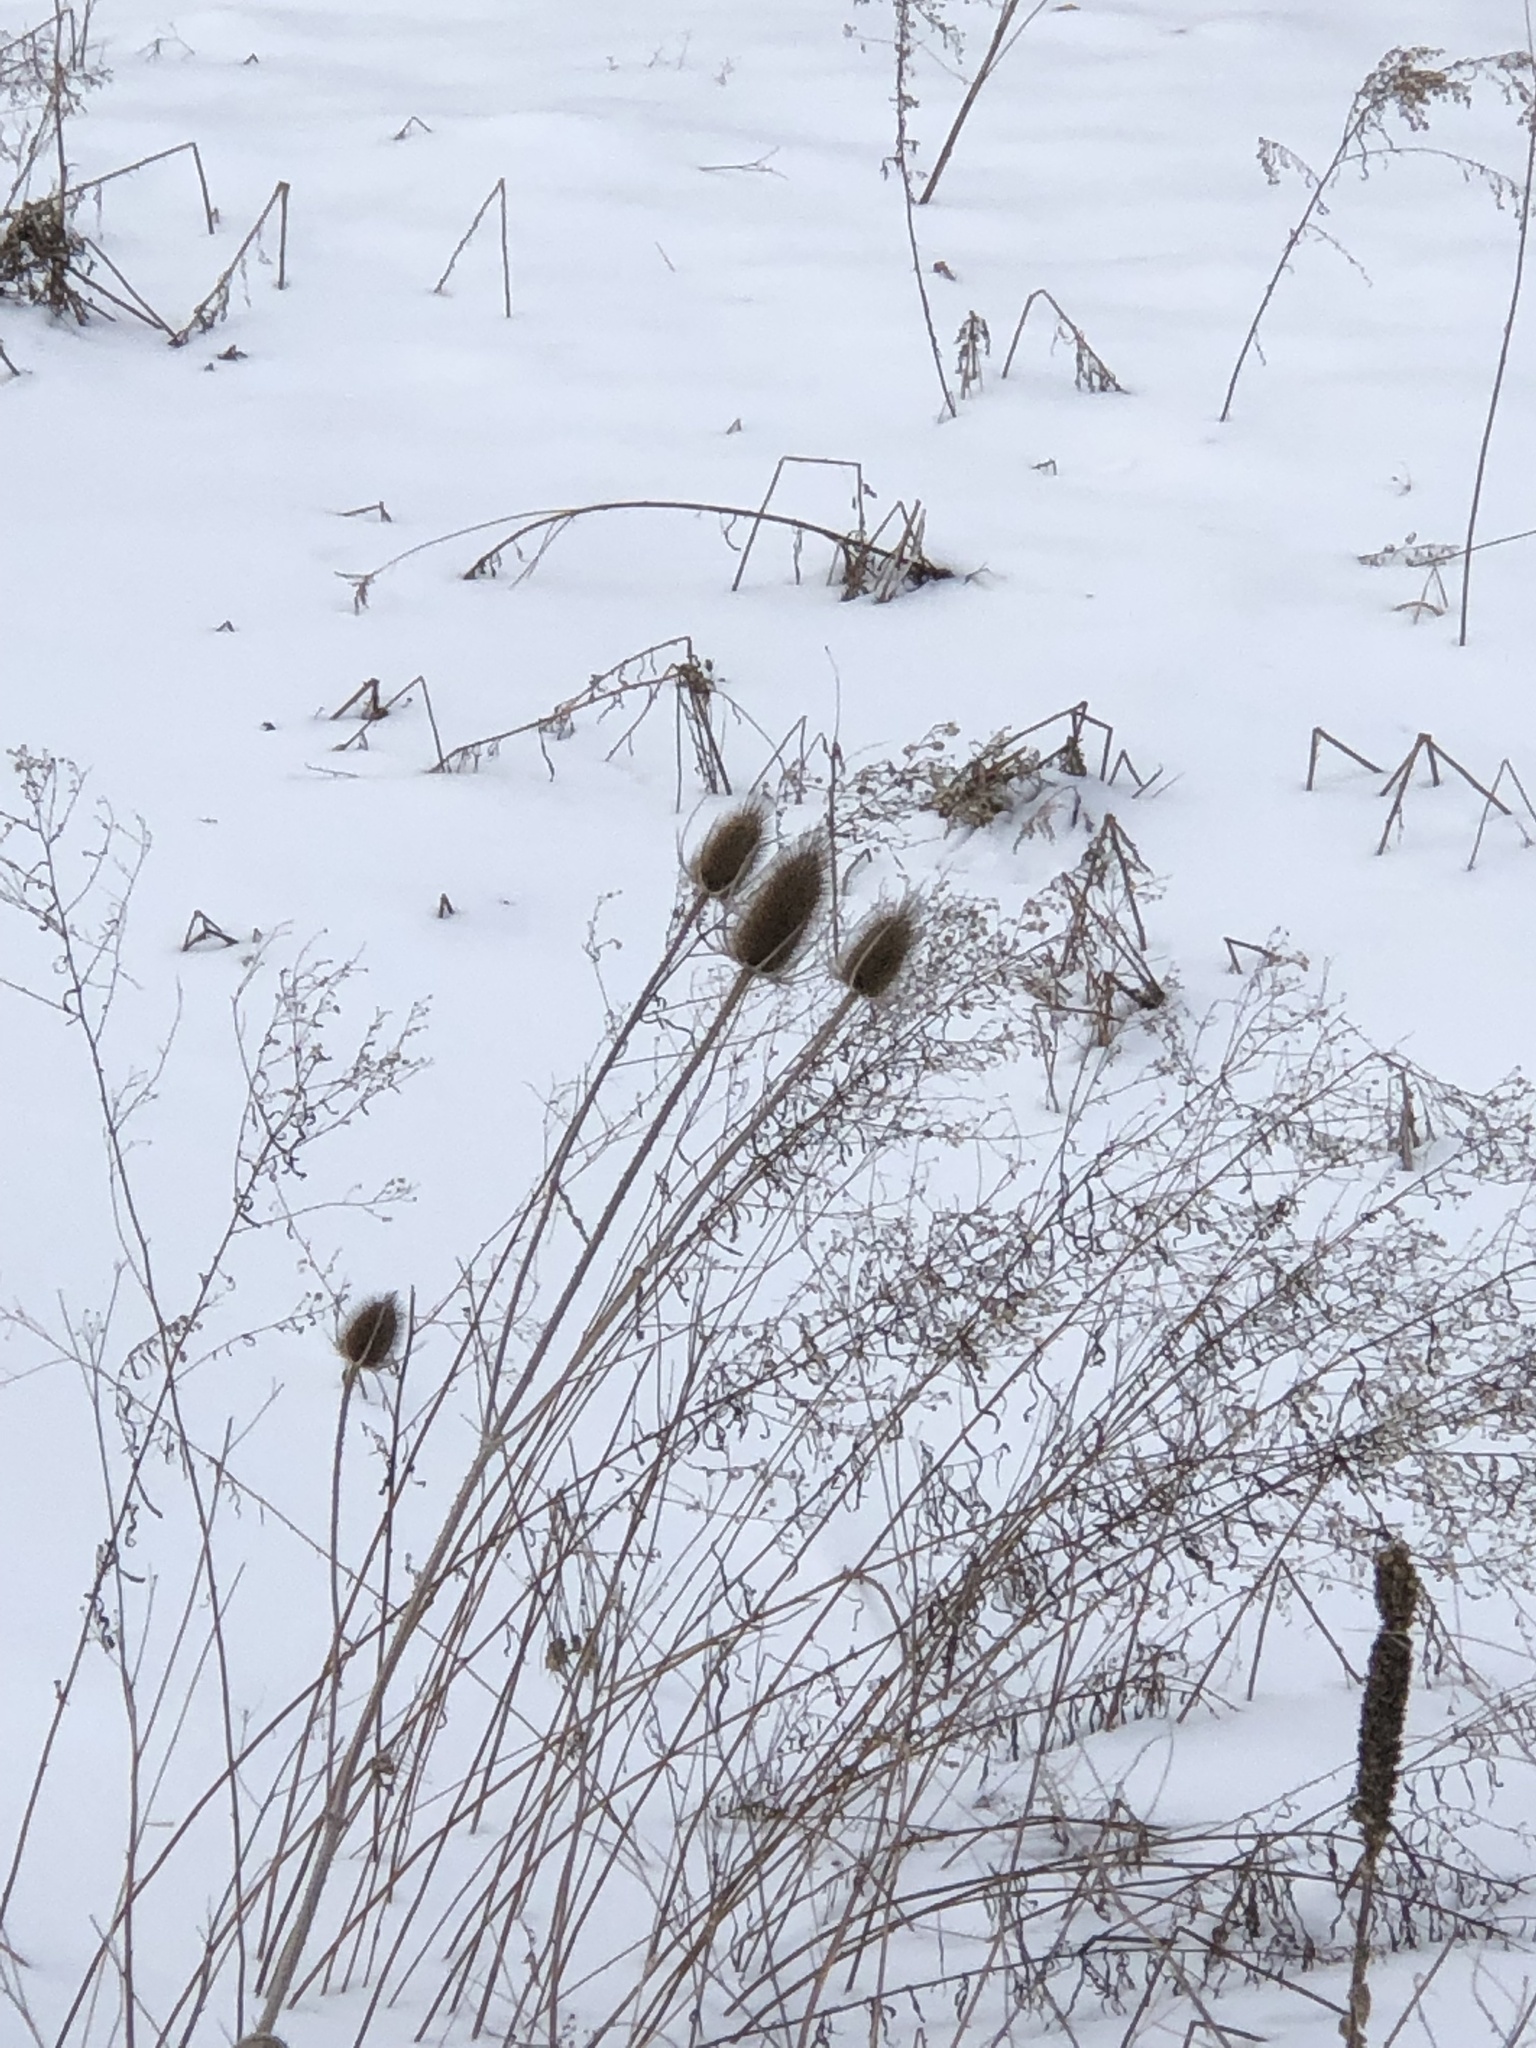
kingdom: Plantae
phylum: Tracheophyta
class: Magnoliopsida
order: Dipsacales
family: Caprifoliaceae
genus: Dipsacus
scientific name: Dipsacus fullonum
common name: Teasel
